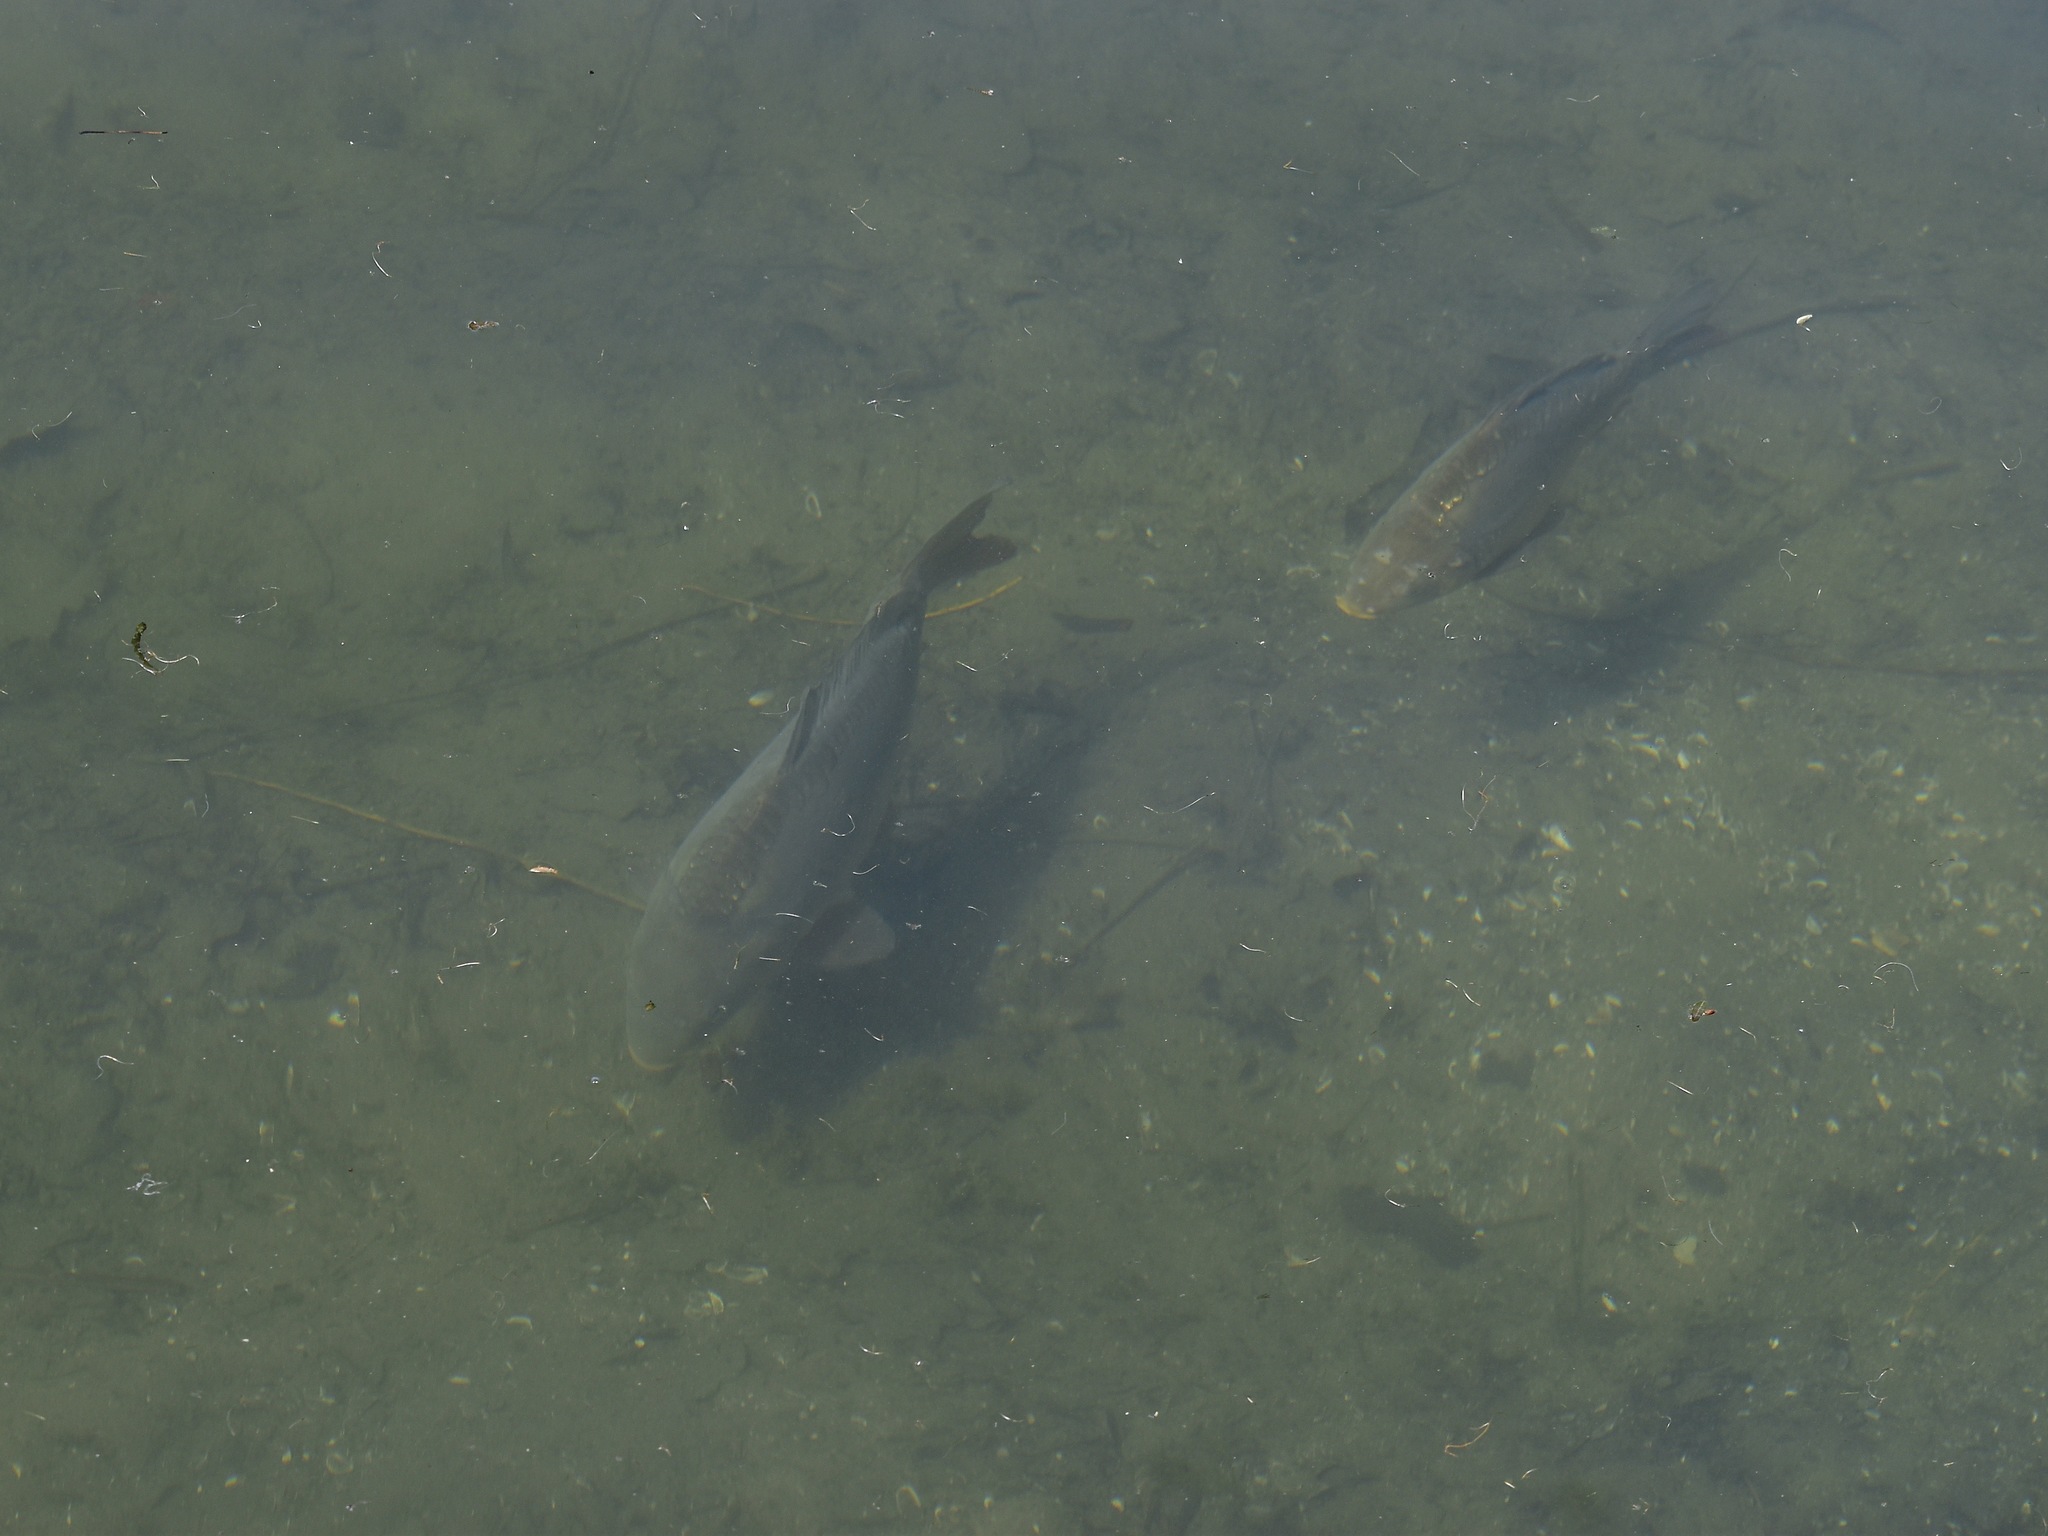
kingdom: Animalia
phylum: Chordata
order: Cypriniformes
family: Cyprinidae
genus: Cyprinus
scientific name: Cyprinus carpio
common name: Common carp
